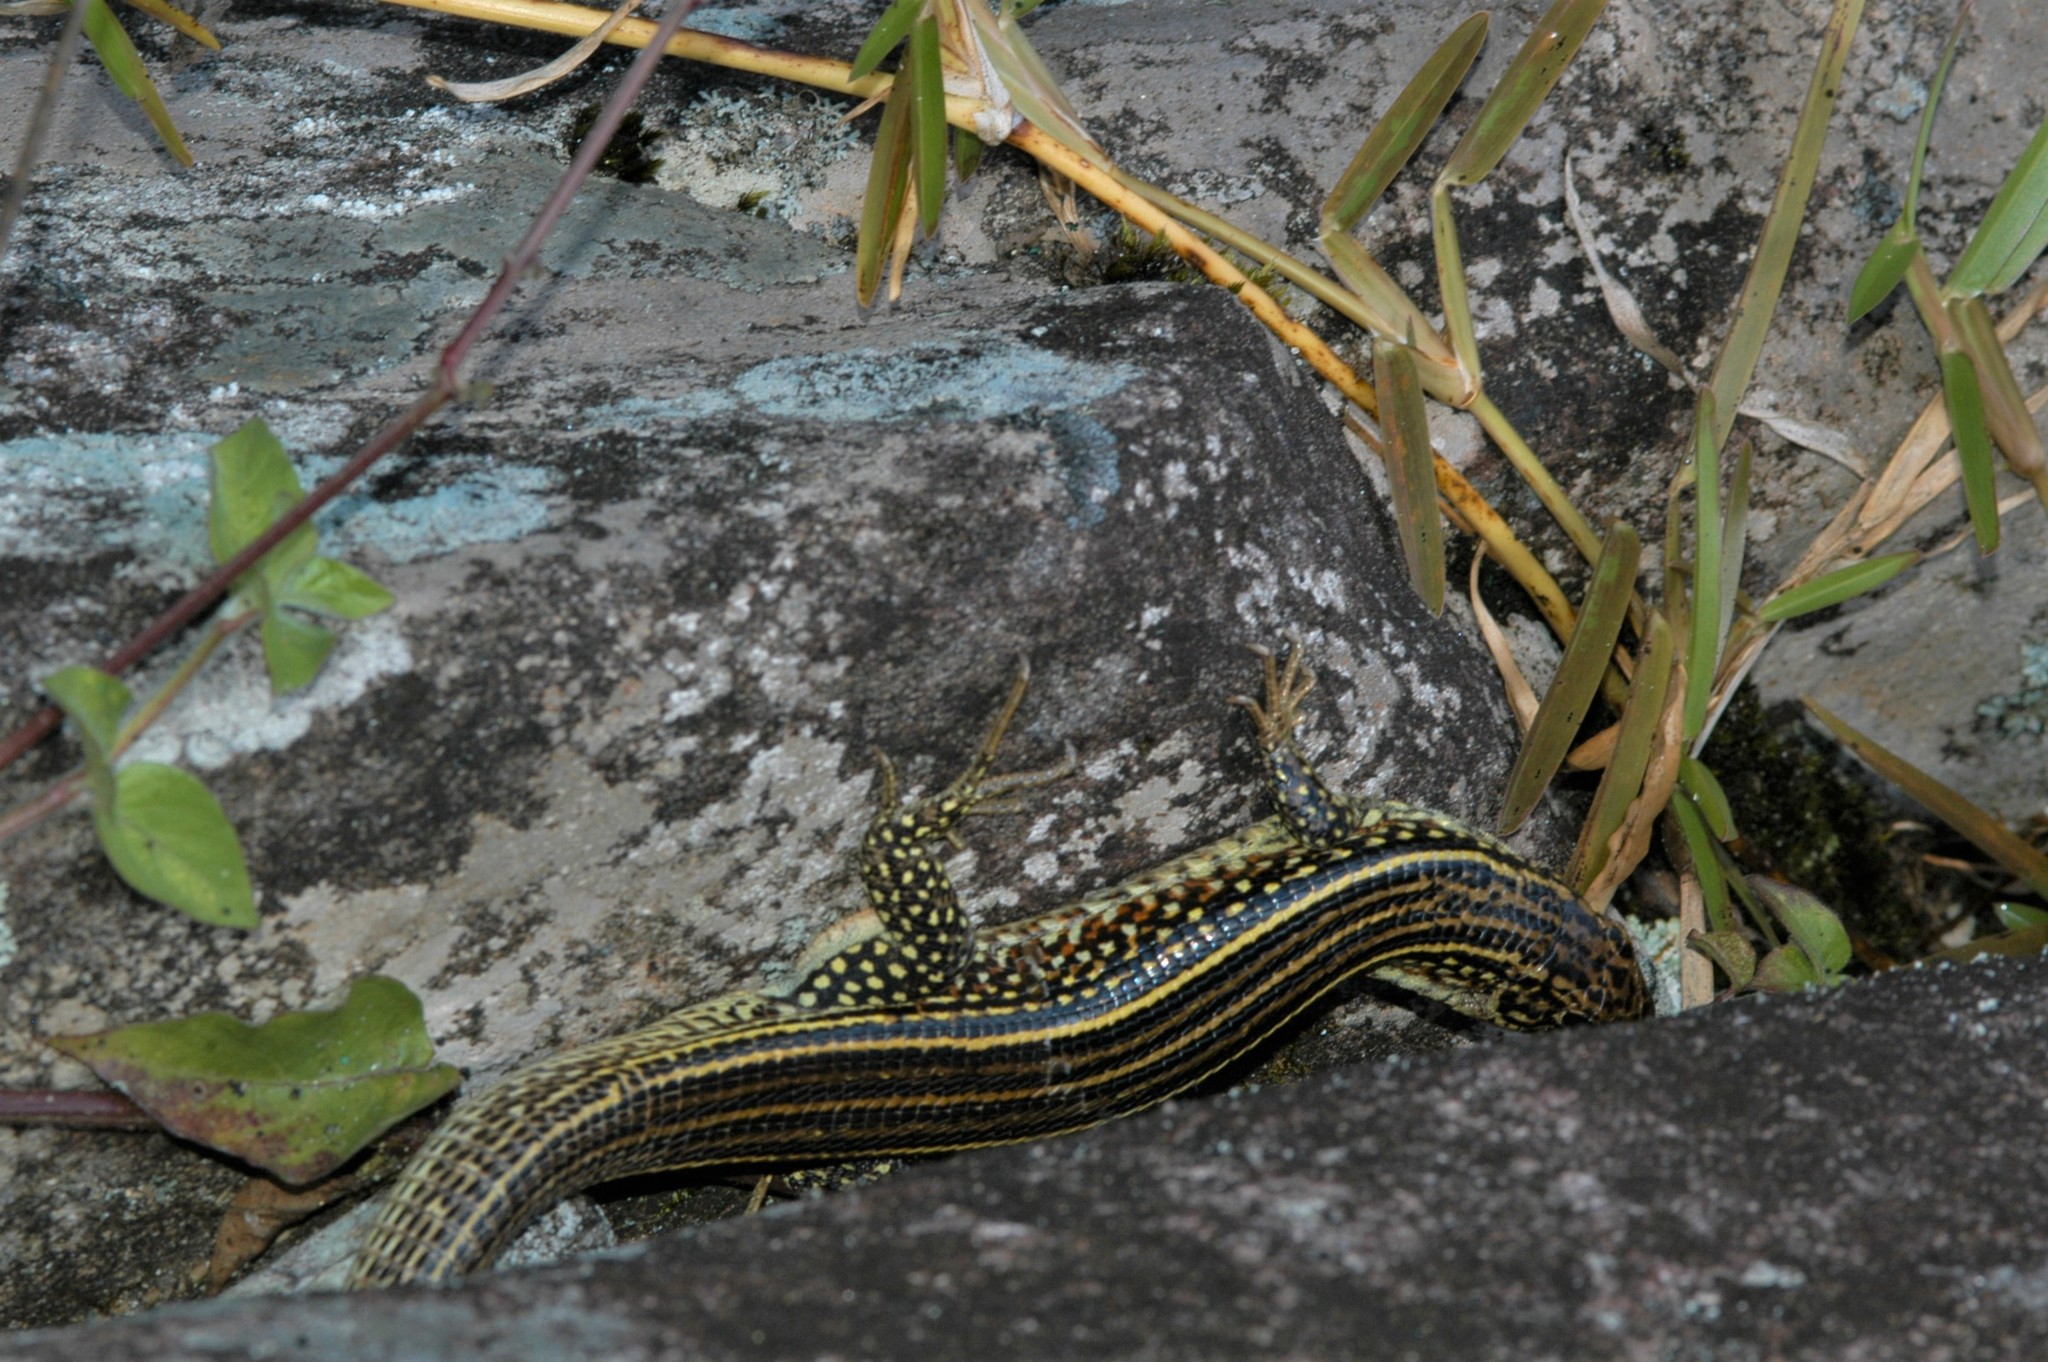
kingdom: Animalia
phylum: Chordata
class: Squamata
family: Gerrhosauridae
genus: Zonosaurus
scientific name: Zonosaurus ornatus
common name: Ornate girdled lizard
